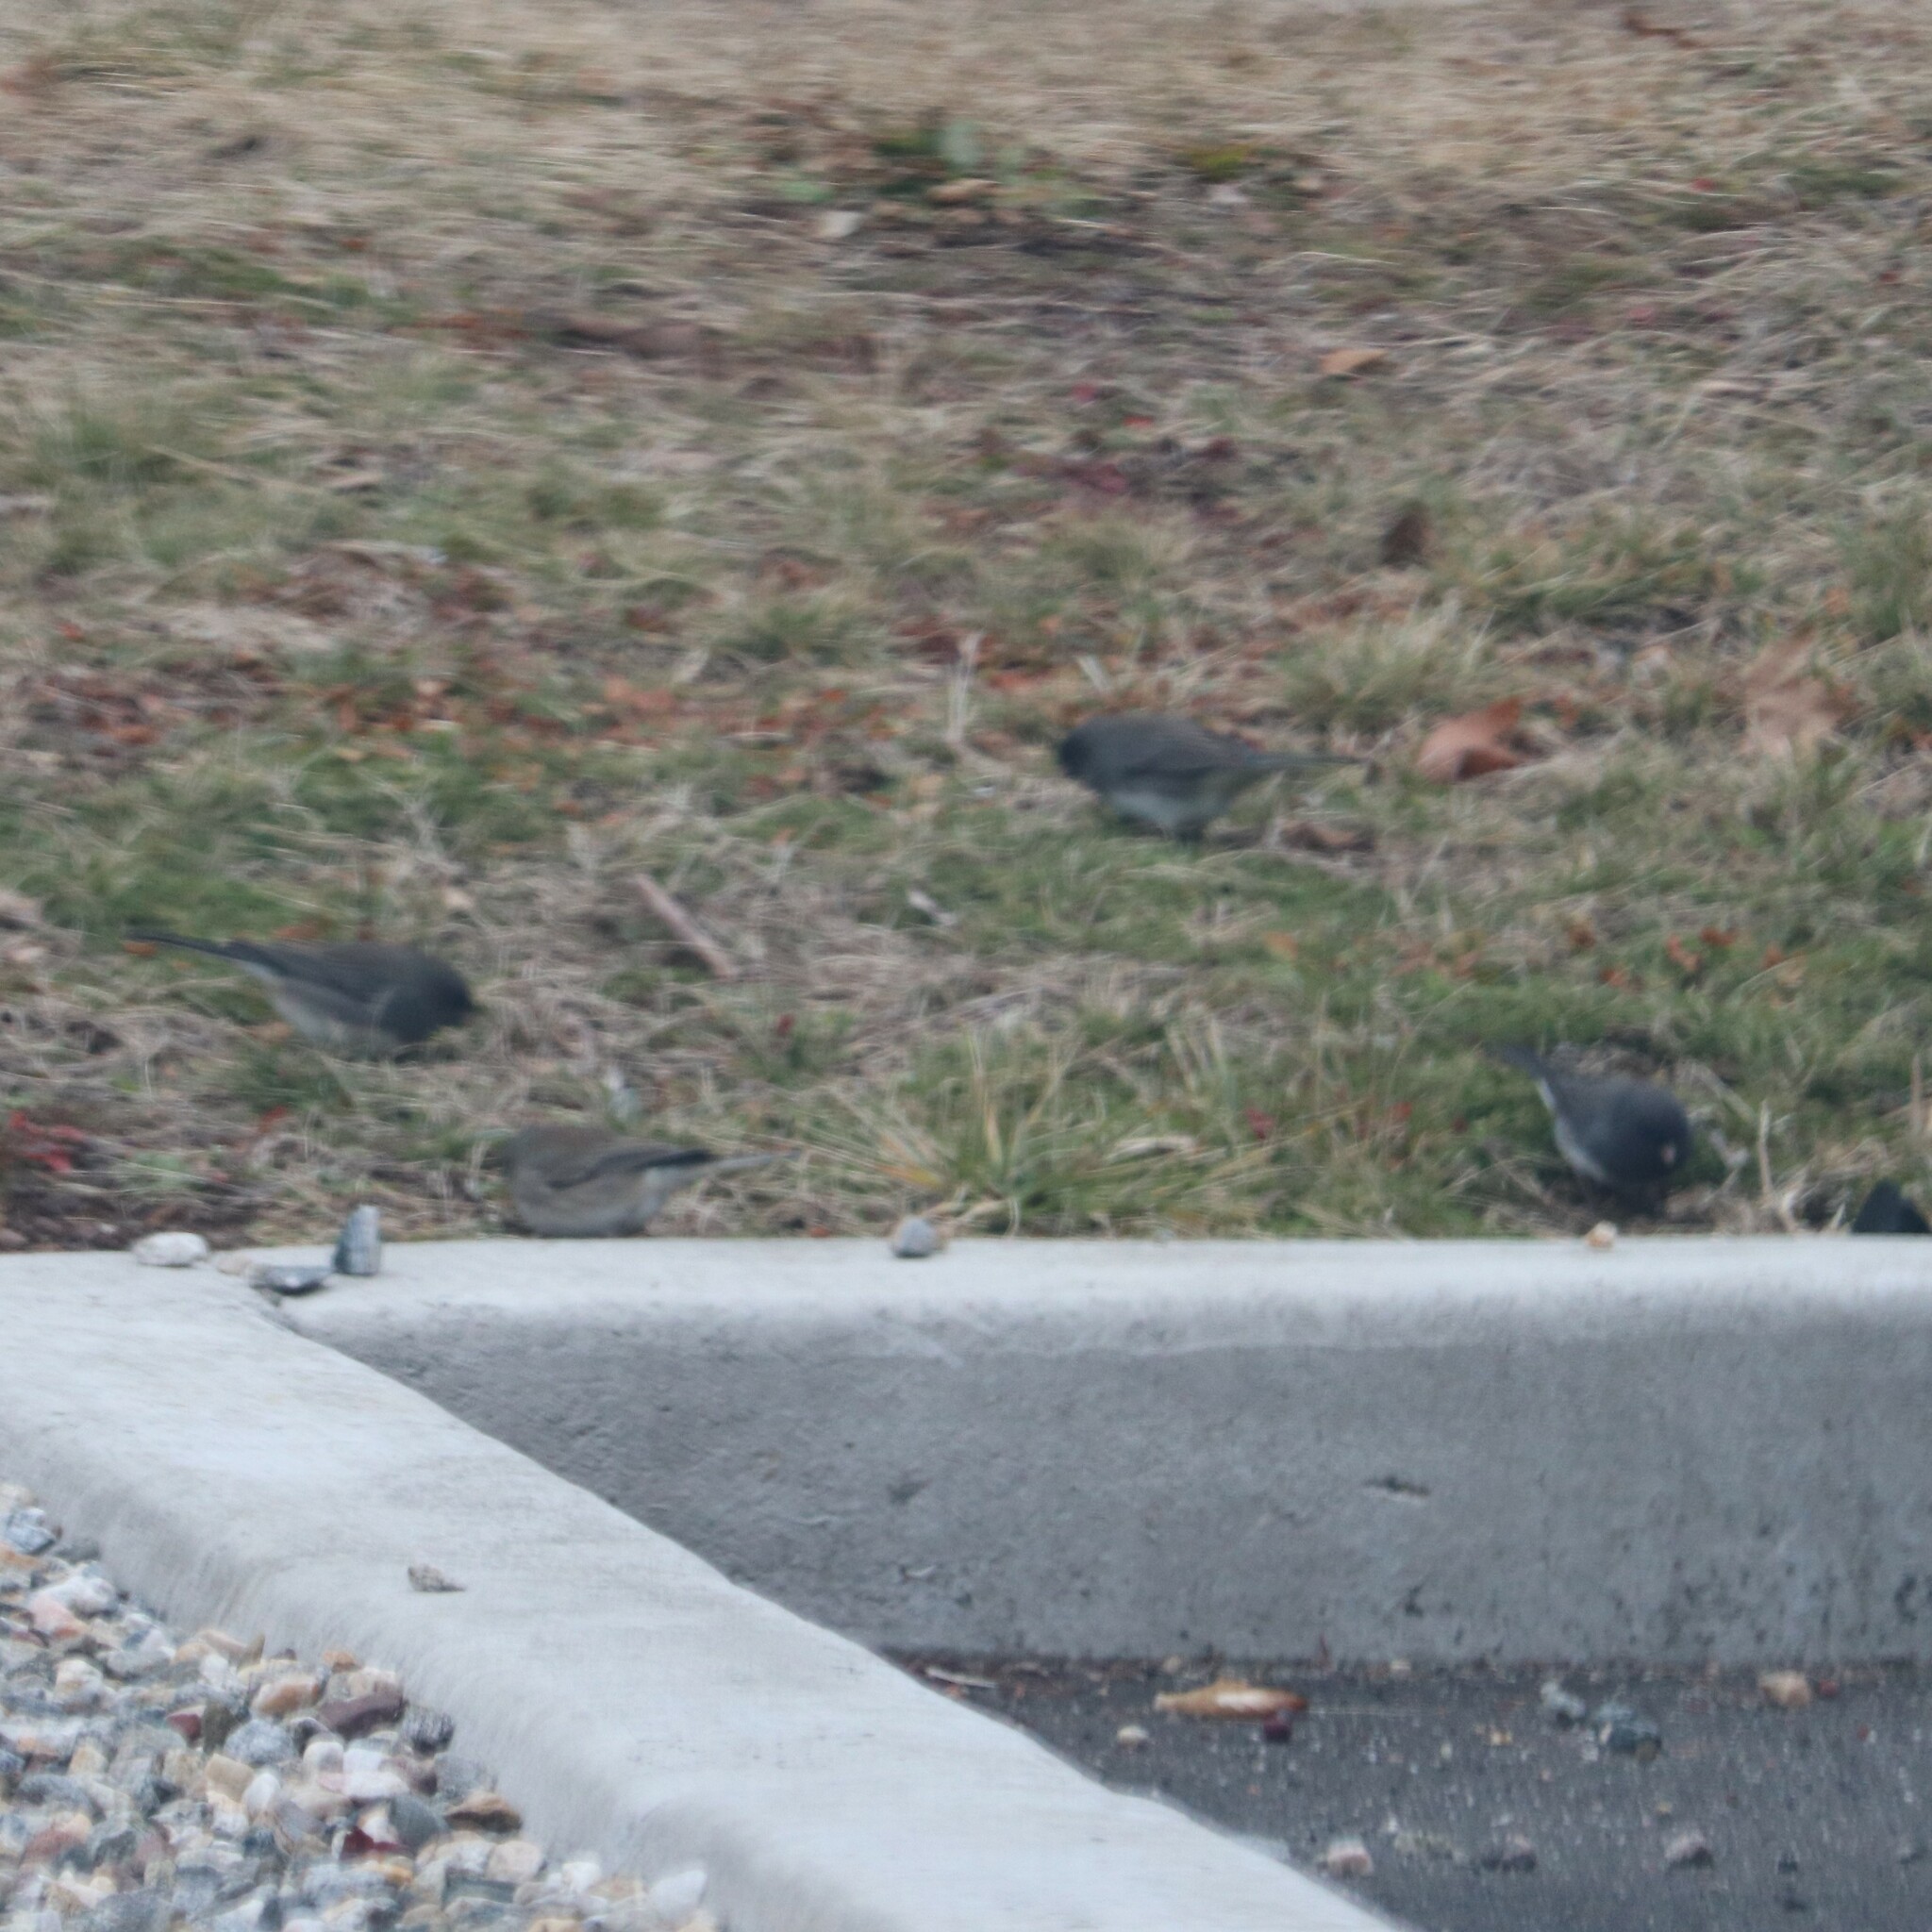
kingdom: Animalia
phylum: Chordata
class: Aves
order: Passeriformes
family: Passerellidae
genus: Junco
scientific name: Junco hyemalis
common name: Dark-eyed junco
